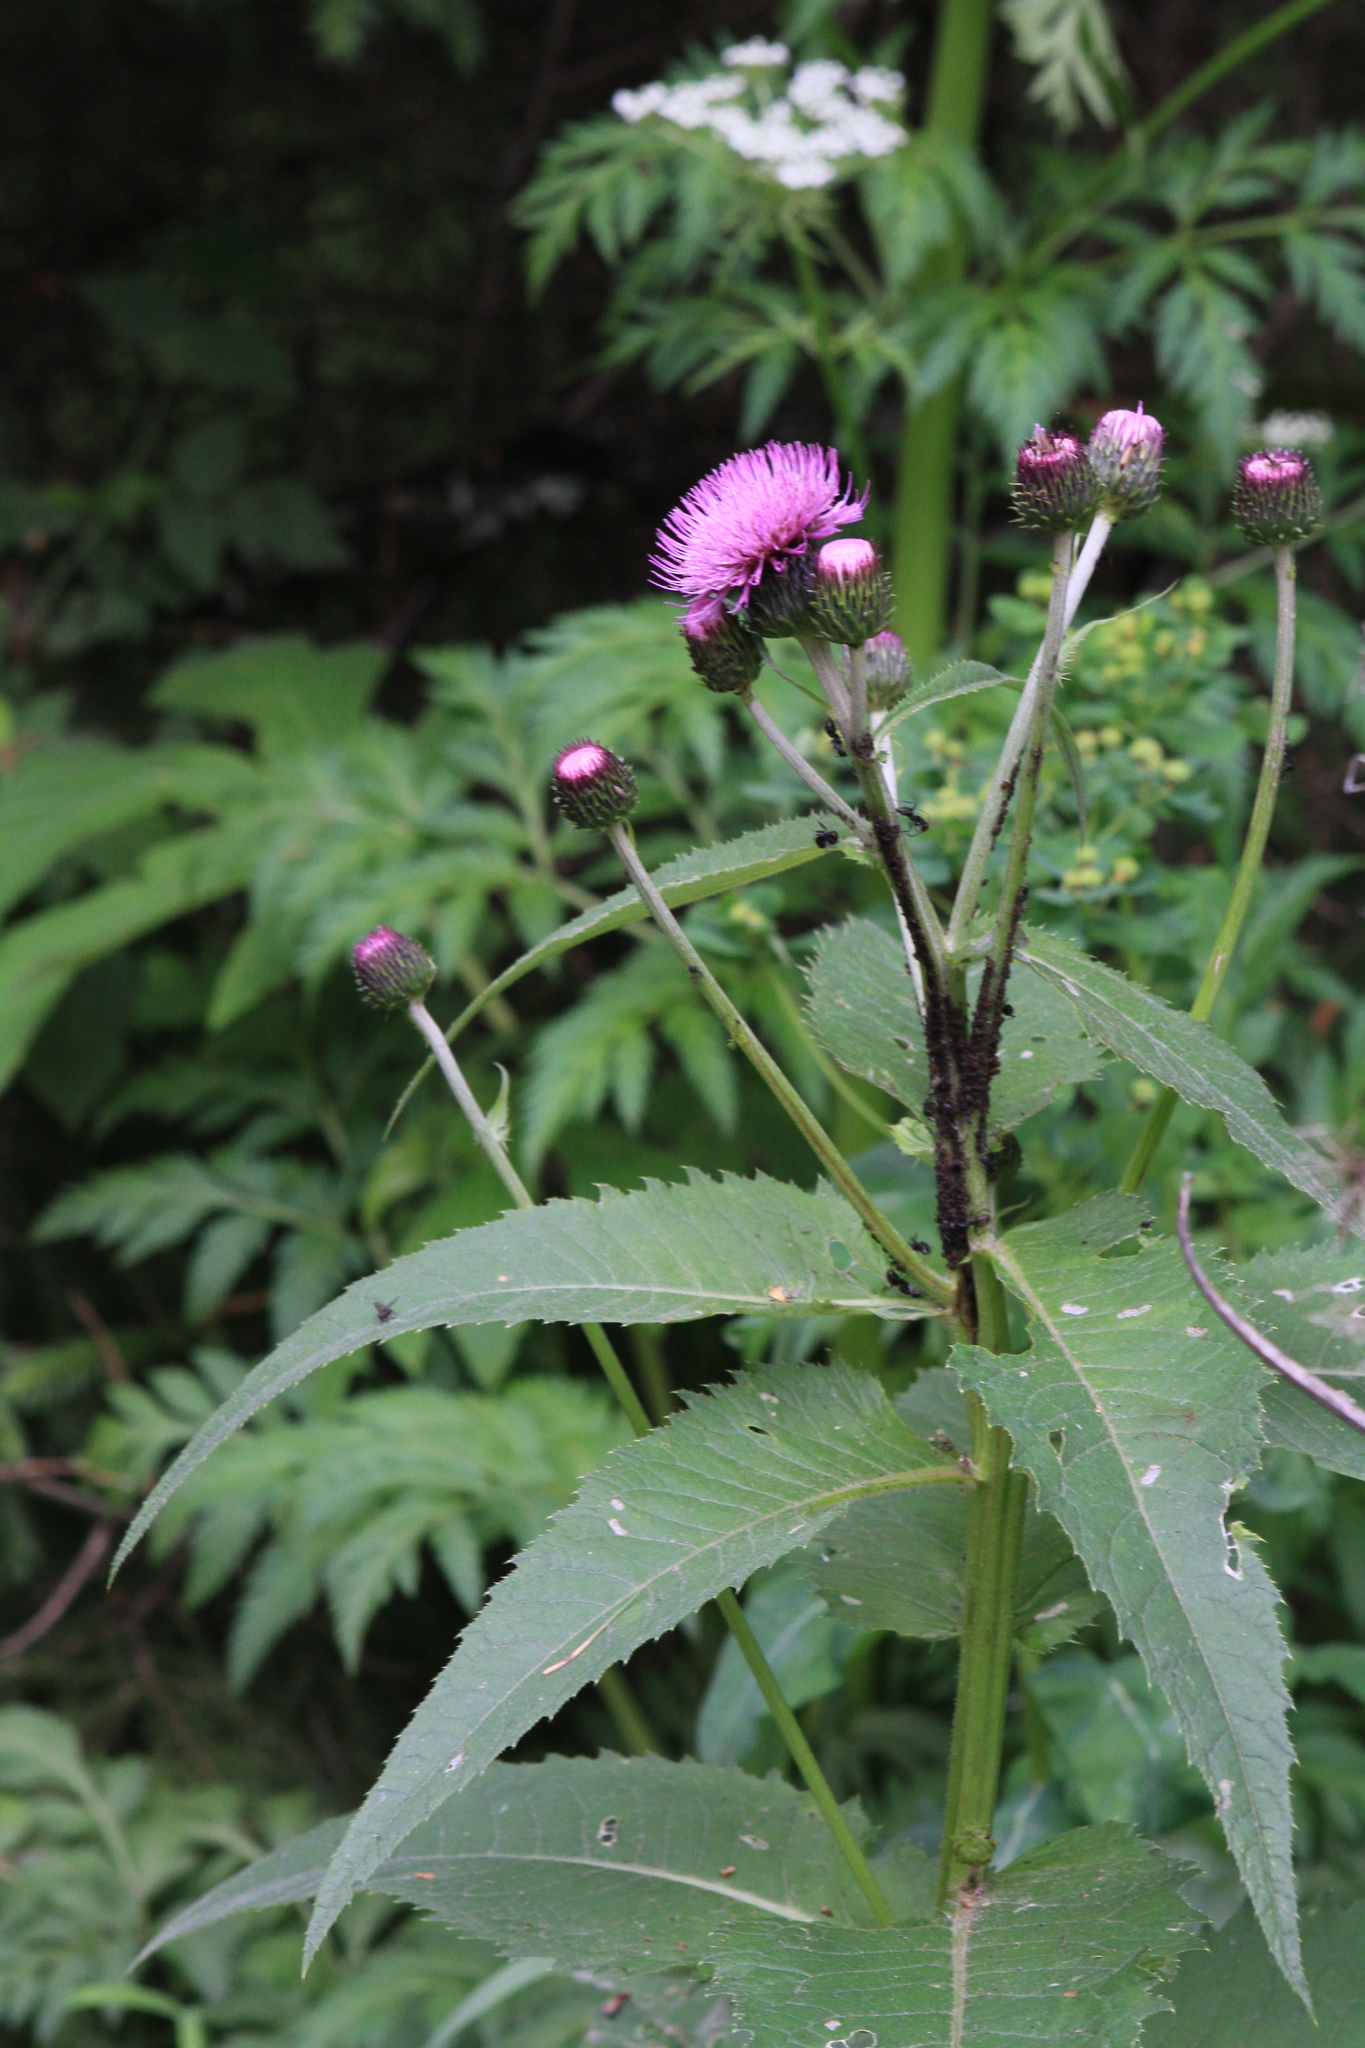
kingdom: Plantae
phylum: Tracheophyta
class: Magnoliopsida
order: Asterales
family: Asteraceae
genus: Cirsium
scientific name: Cirsium helenioides
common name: Melancholy thistle
